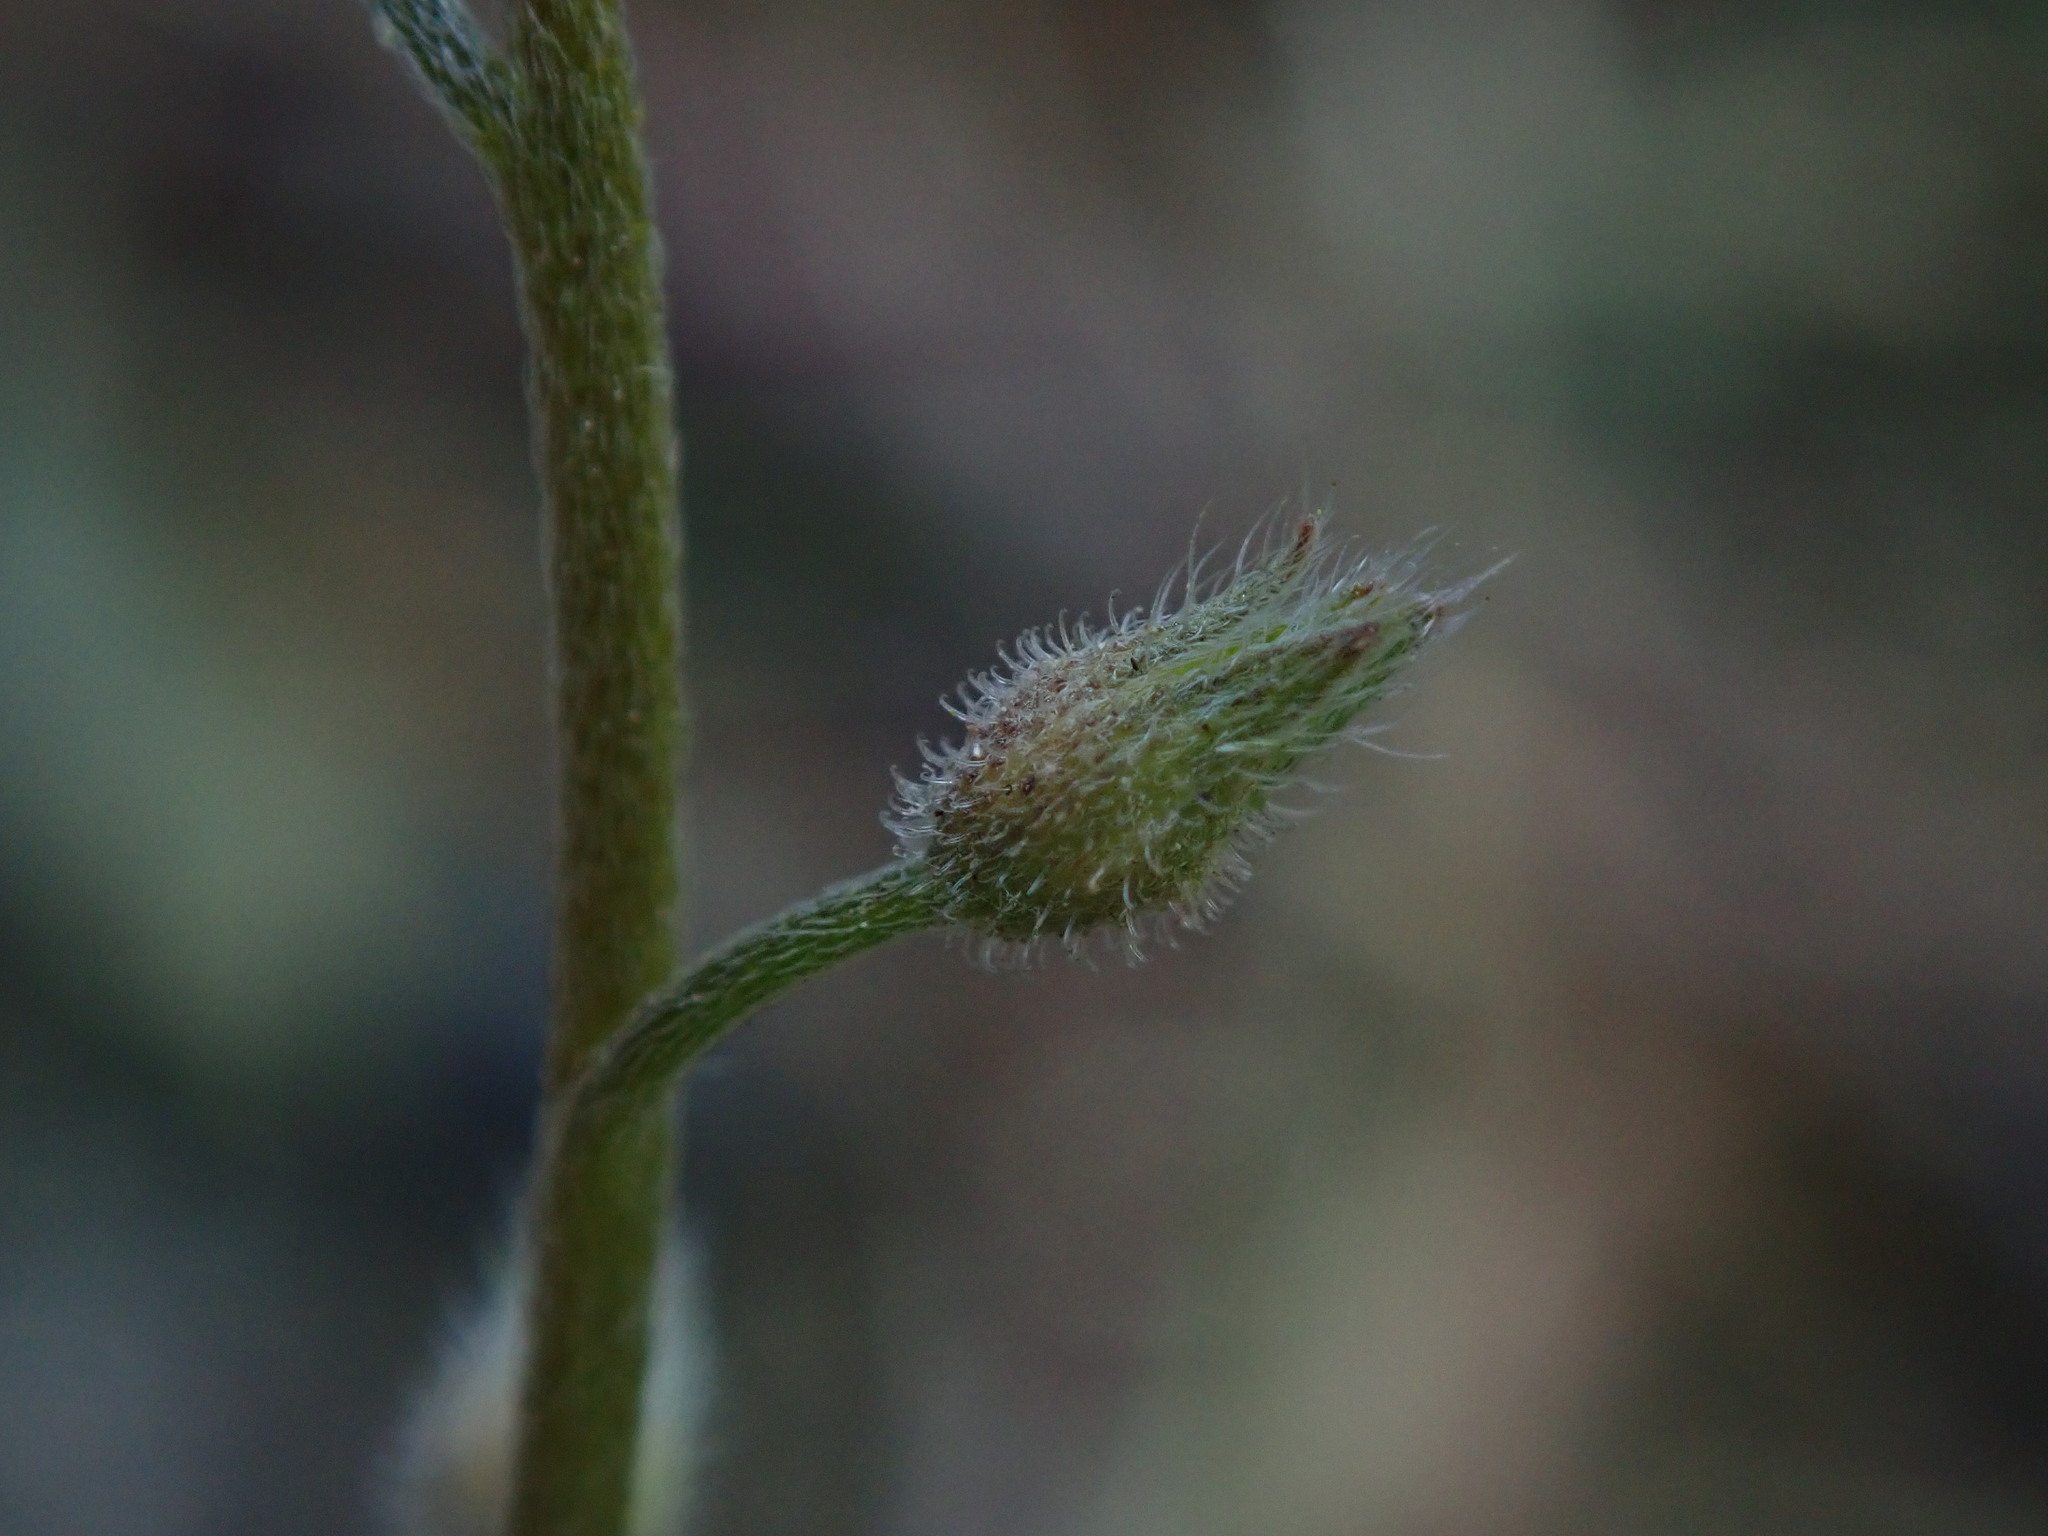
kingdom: Plantae
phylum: Tracheophyta
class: Magnoliopsida
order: Boraginales
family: Boraginaceae
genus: Myosotis
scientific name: Myosotis arvensis
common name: Field forget-me-not
